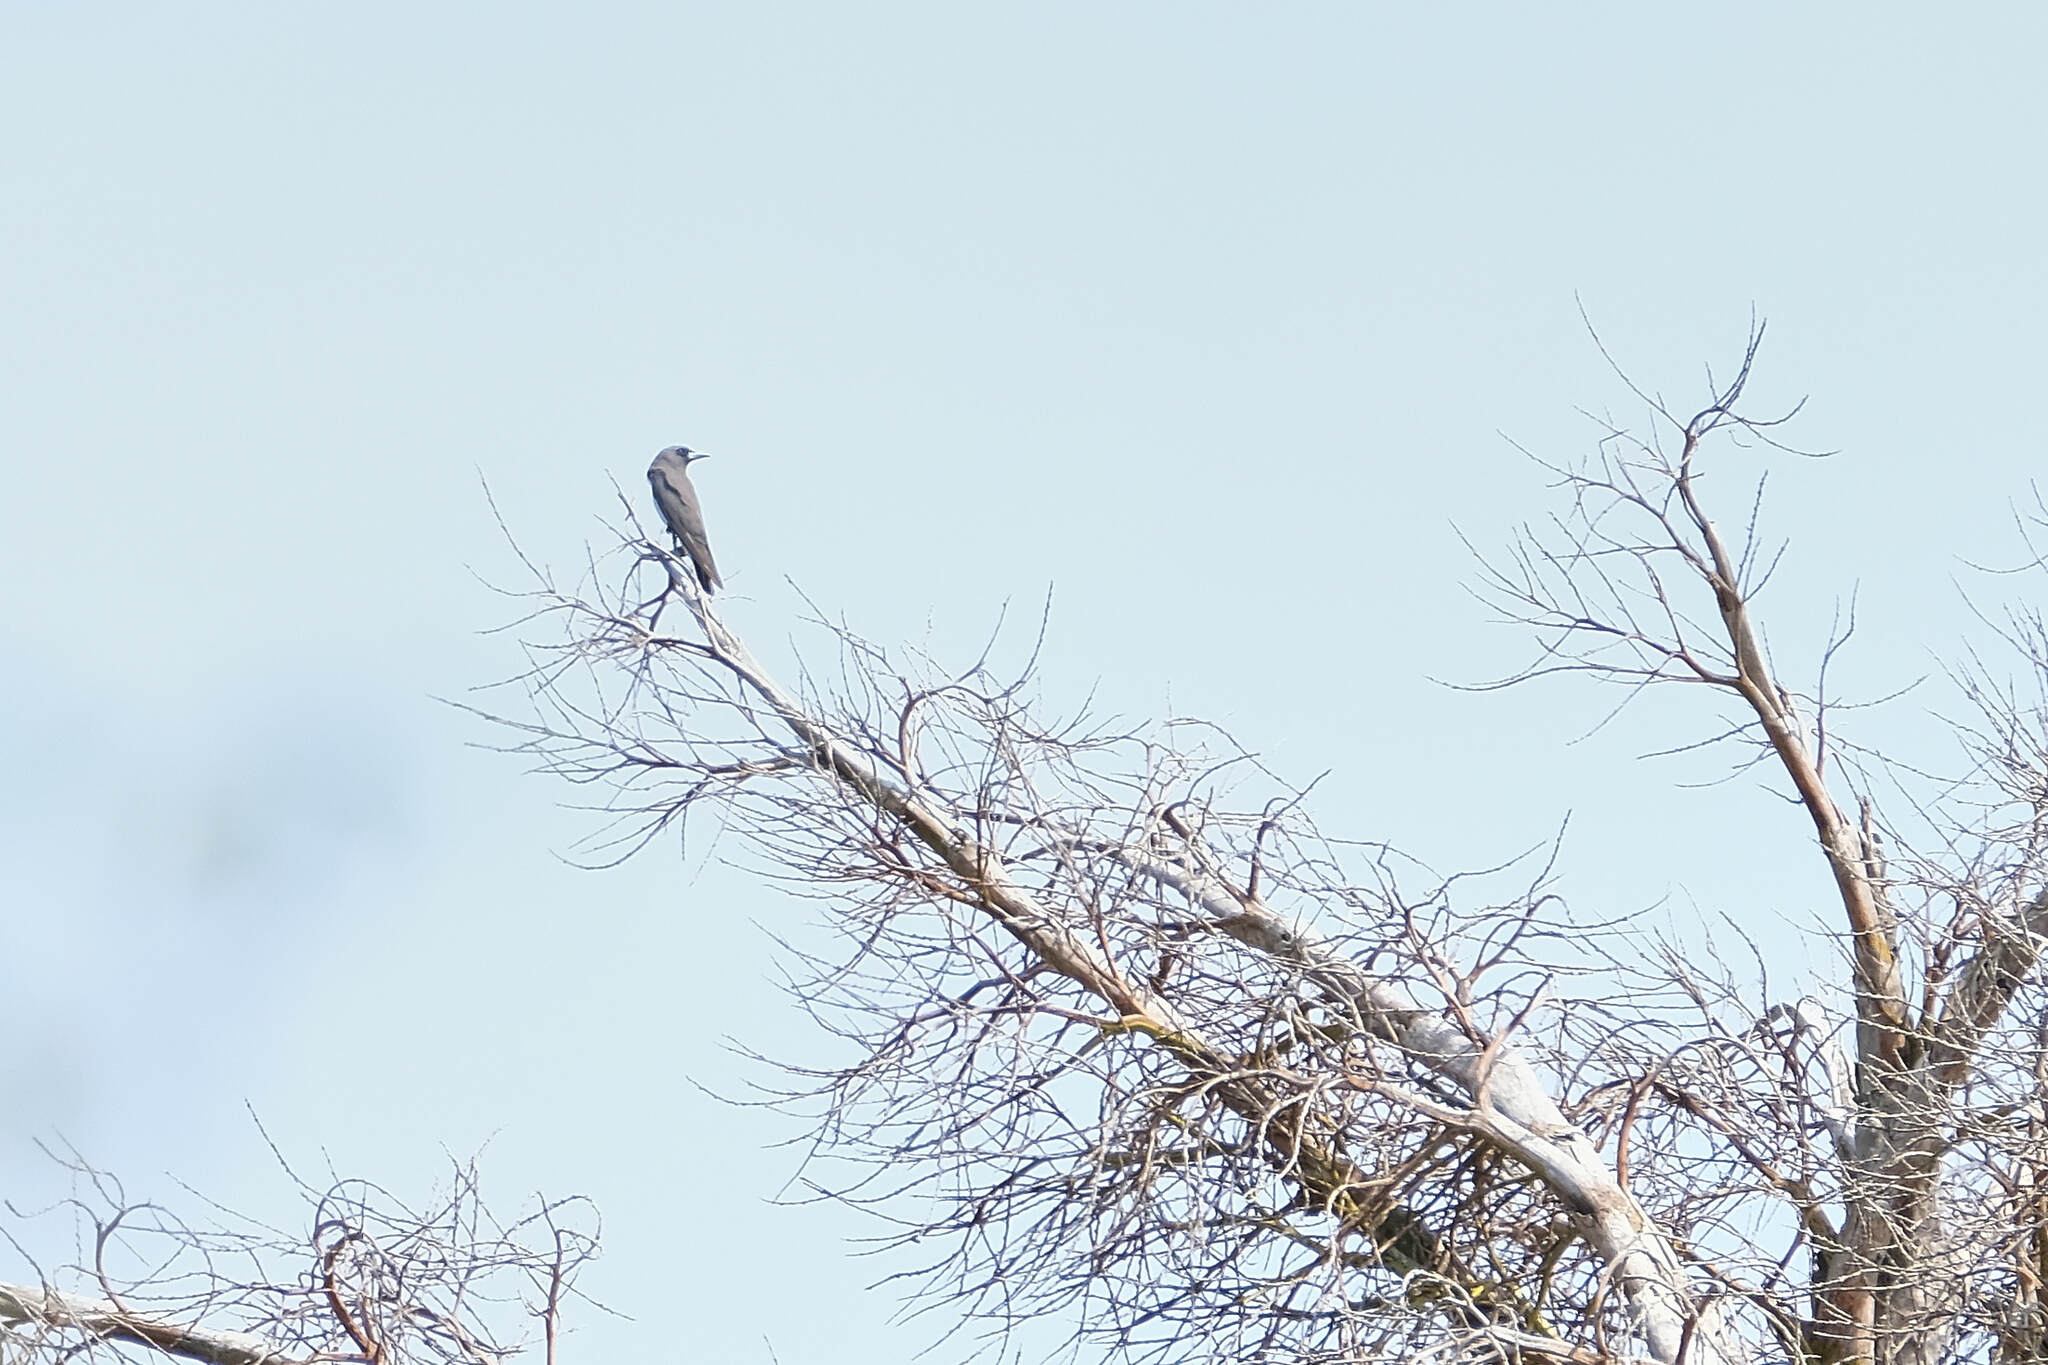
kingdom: Animalia
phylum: Chordata
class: Aves
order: Passeriformes
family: Artamidae
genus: Artamus
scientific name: Artamus leucoryn
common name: White-breasted woodswallow
